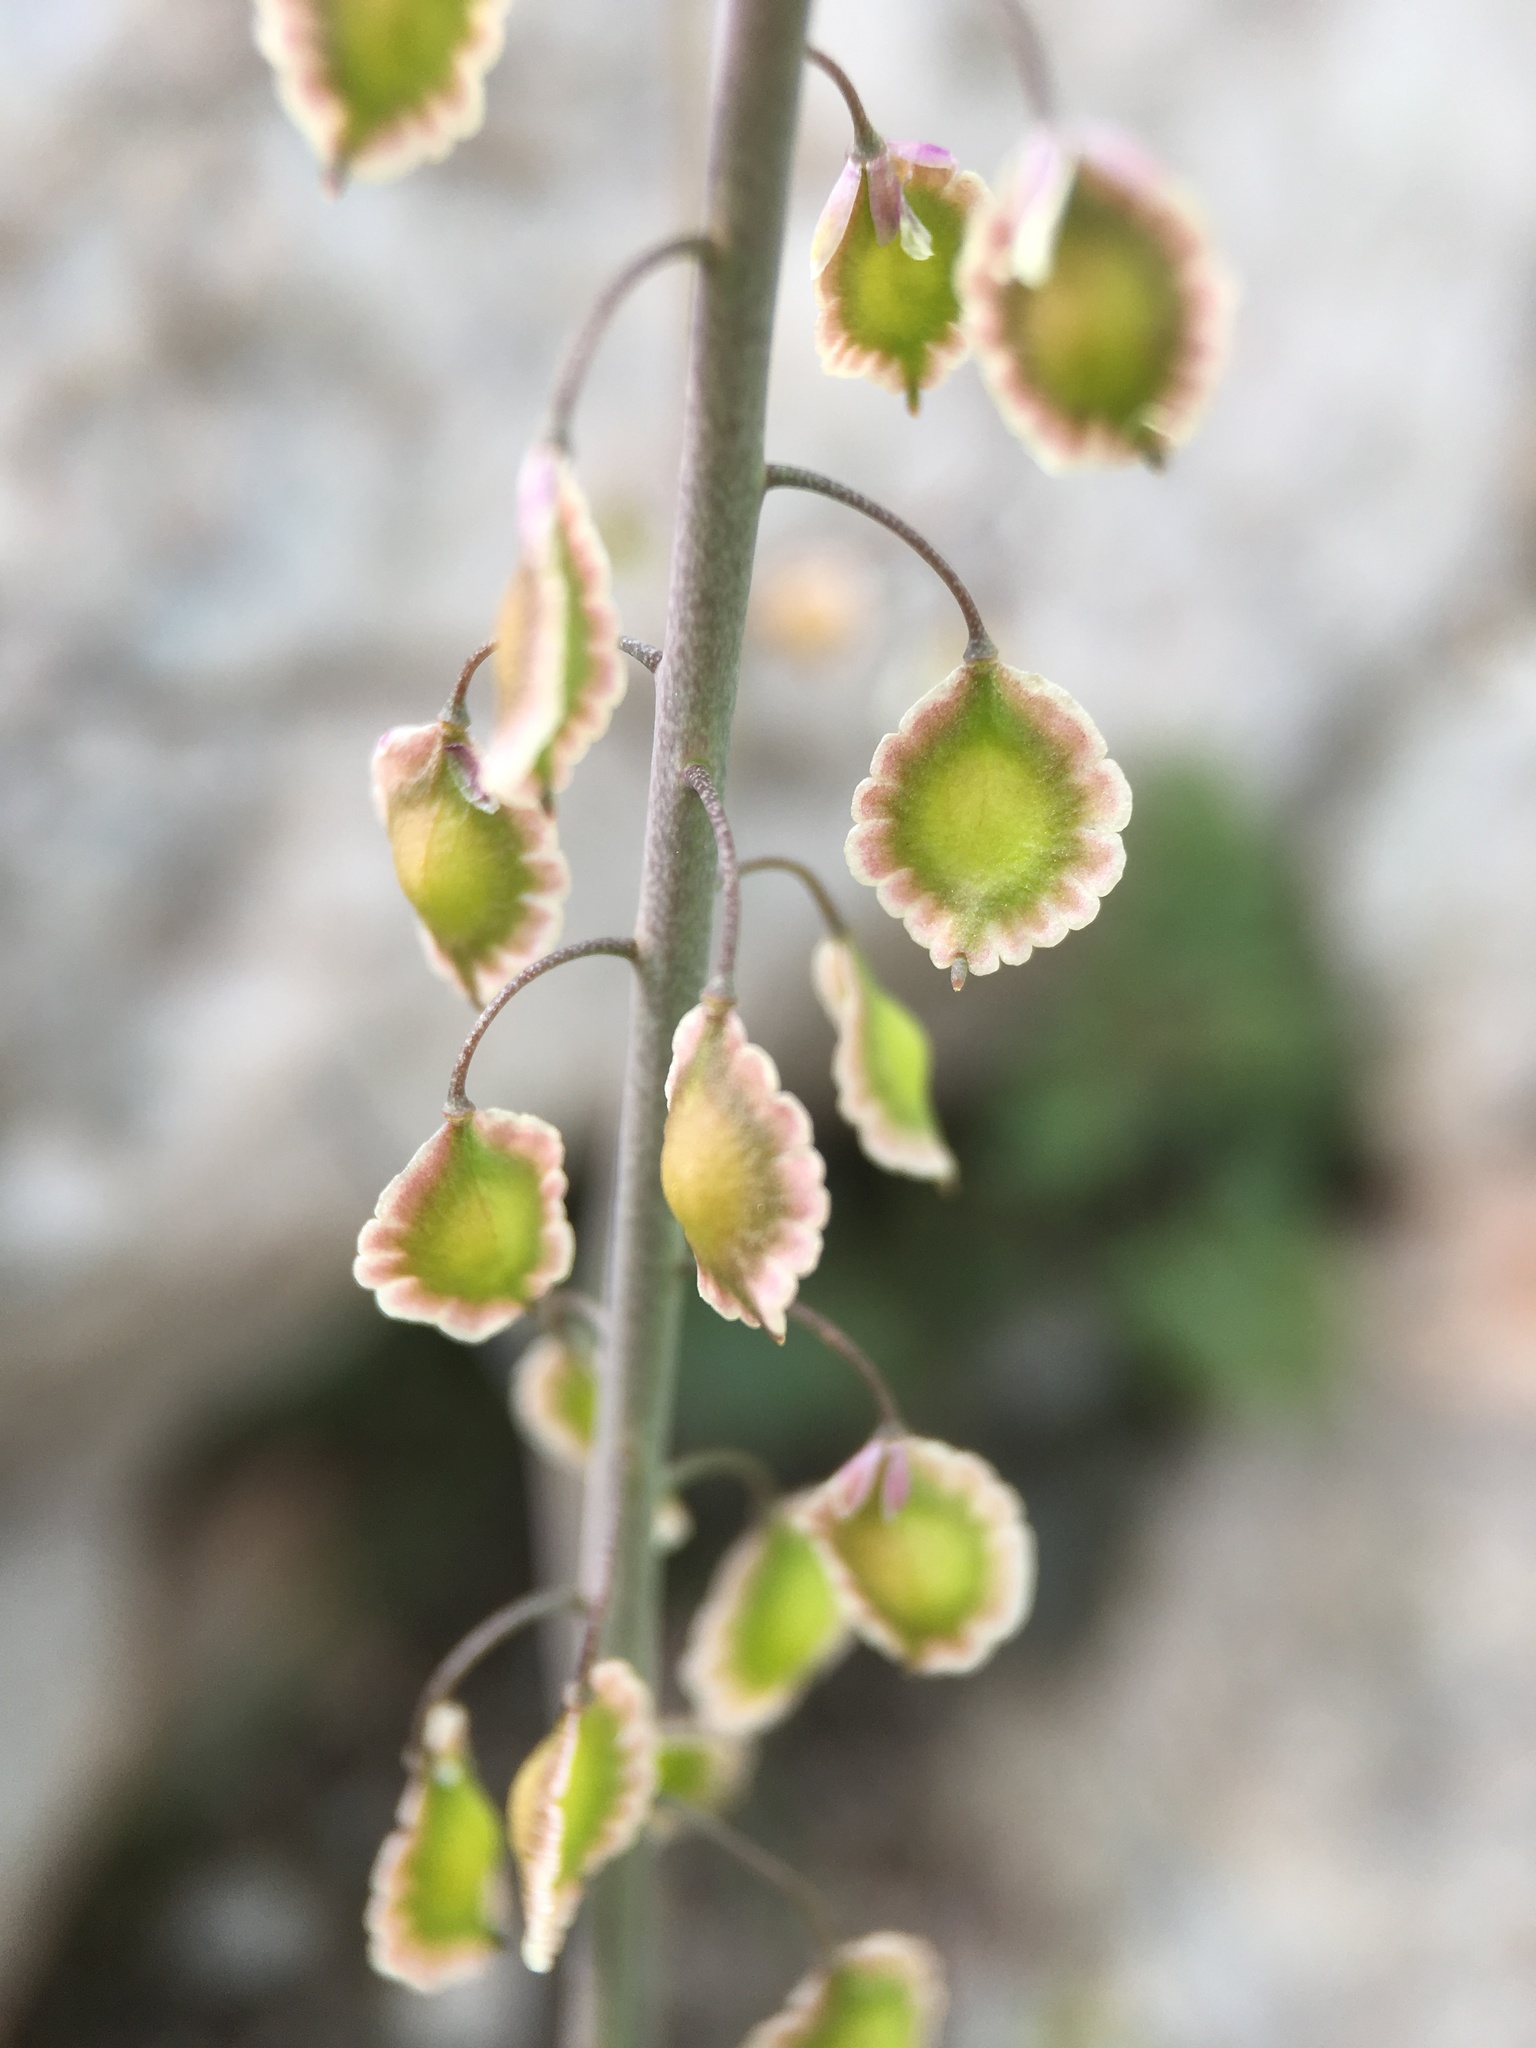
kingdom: Plantae
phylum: Tracheophyta
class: Magnoliopsida
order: Brassicales
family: Brassicaceae
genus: Thysanocarpus
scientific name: Thysanocarpus curvipes
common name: Sand fringepod
